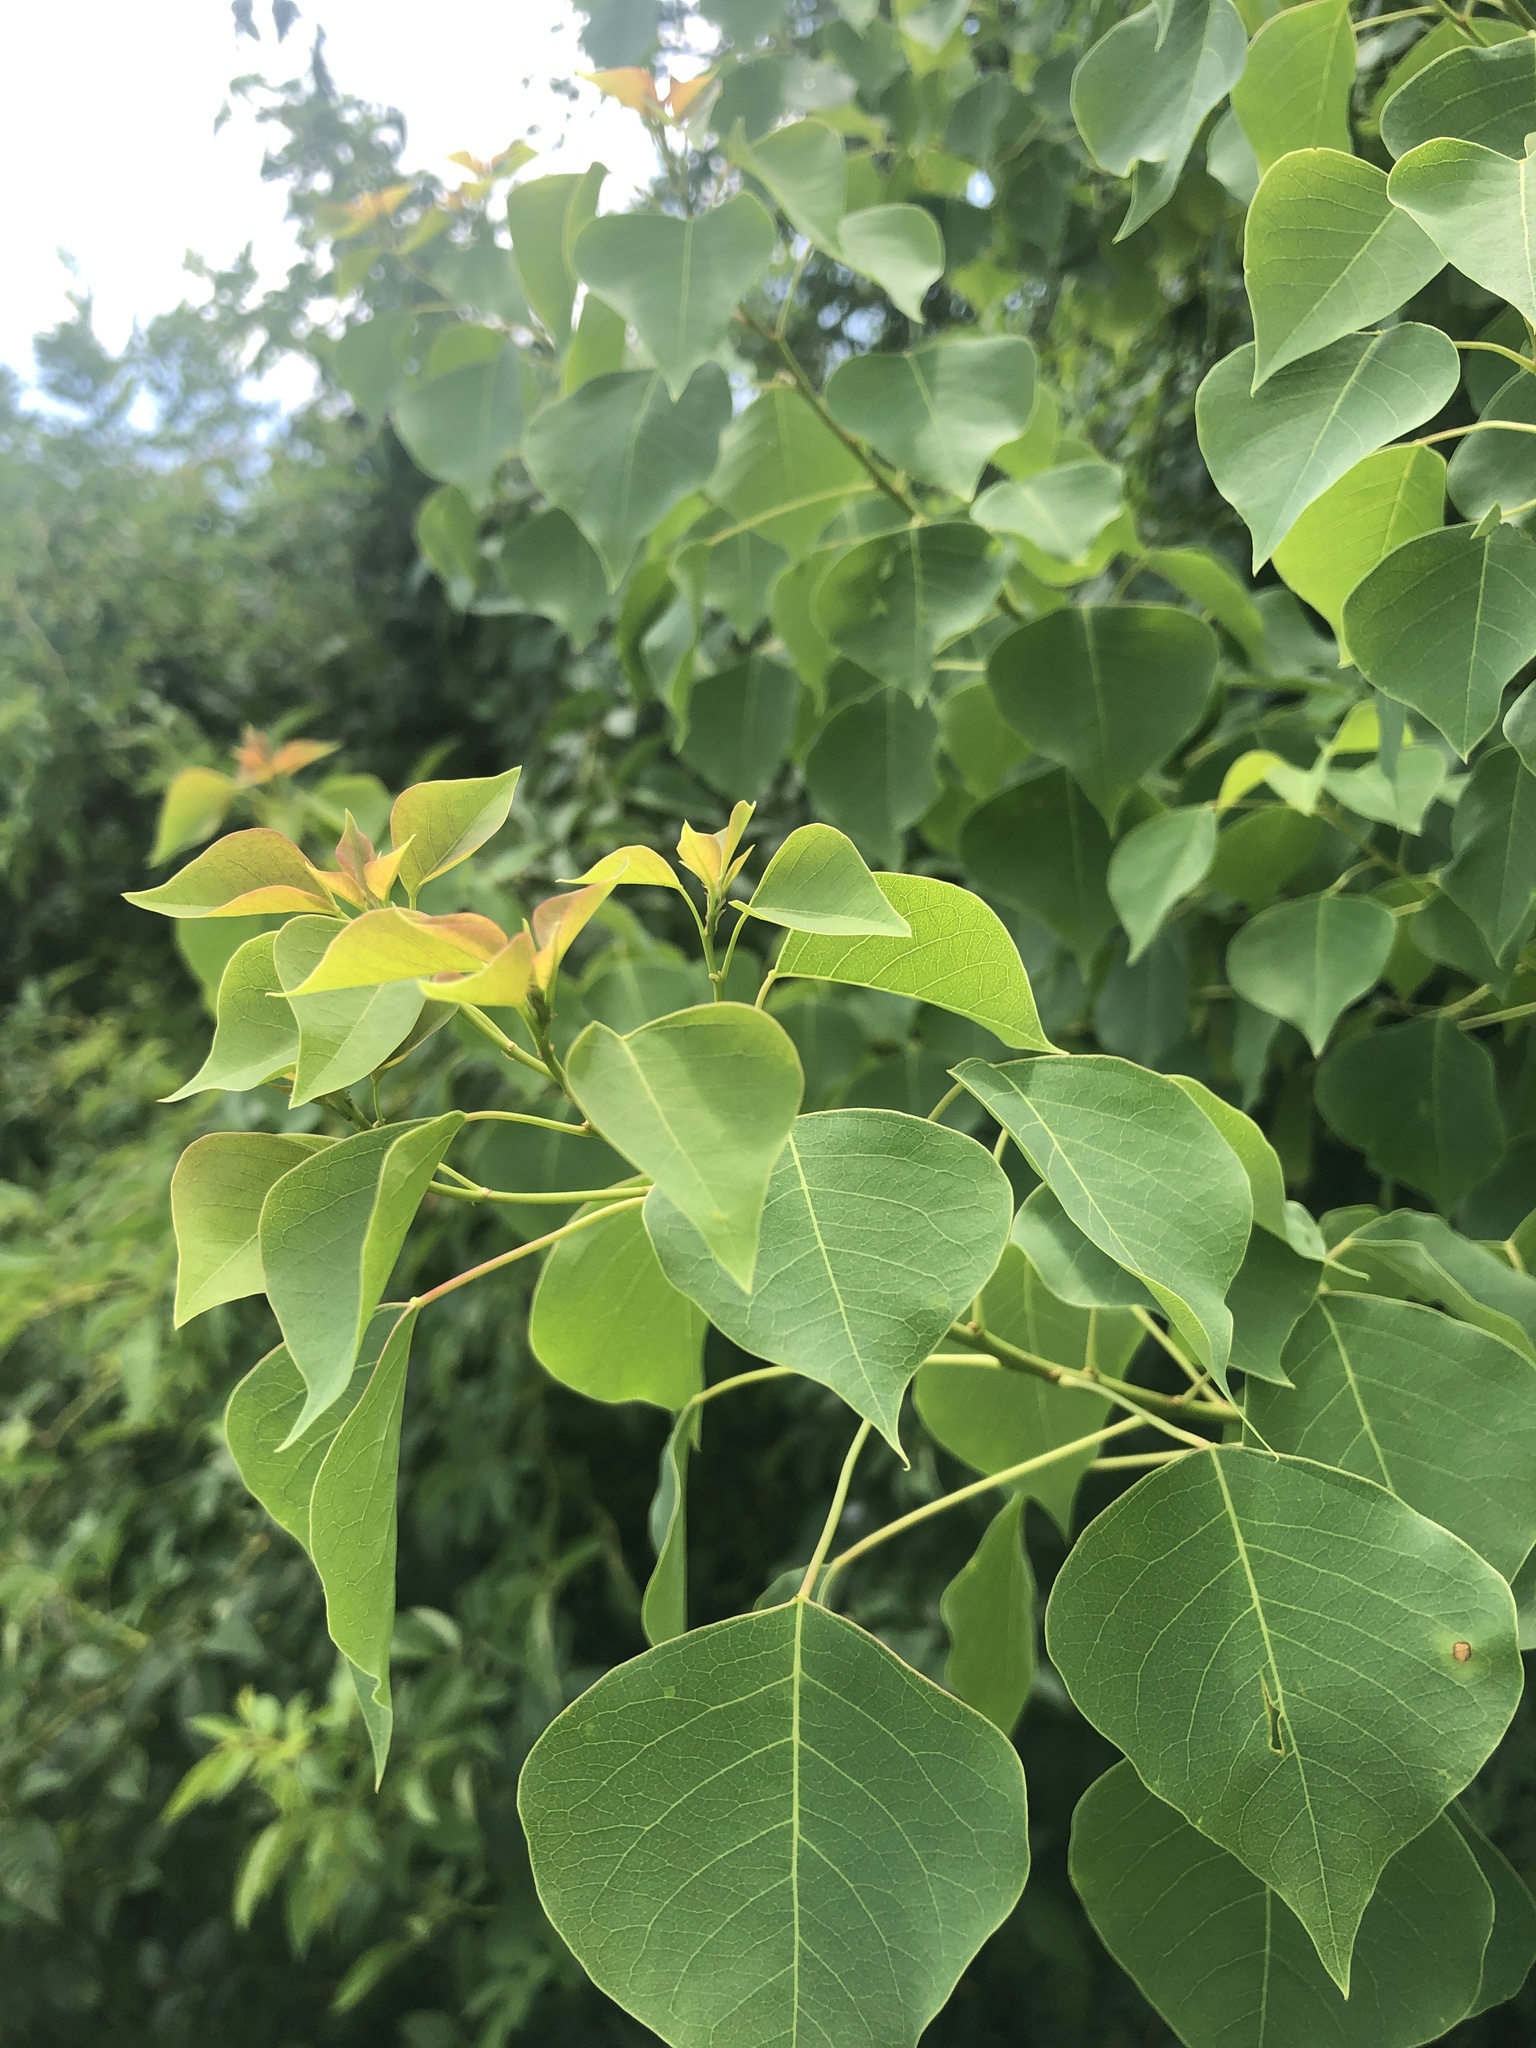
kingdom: Plantae
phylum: Tracheophyta
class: Magnoliopsida
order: Malpighiales
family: Euphorbiaceae
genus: Triadica
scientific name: Triadica sebifera
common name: Chinese tallow
